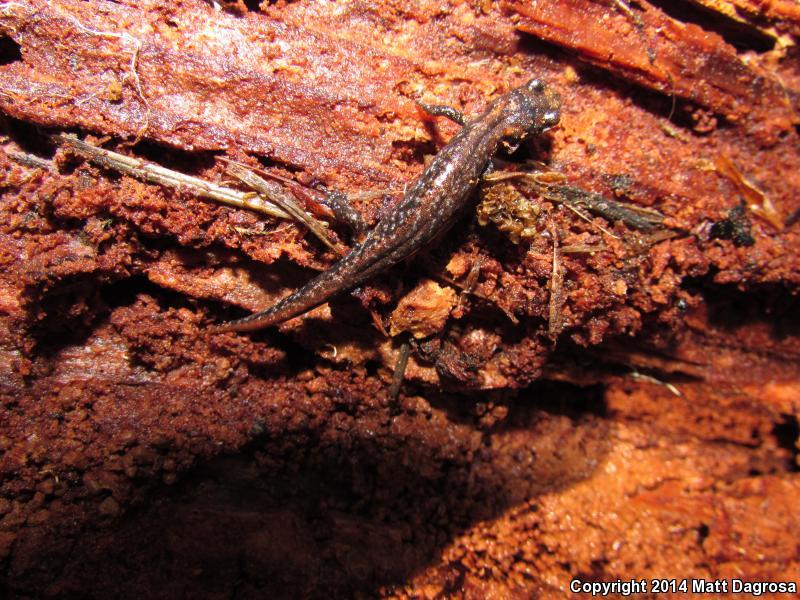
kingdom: Animalia
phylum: Chordata
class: Amphibia
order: Caudata
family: Plethodontidae
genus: Aneides
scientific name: Aneides ferreus
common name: Clouded salamander
